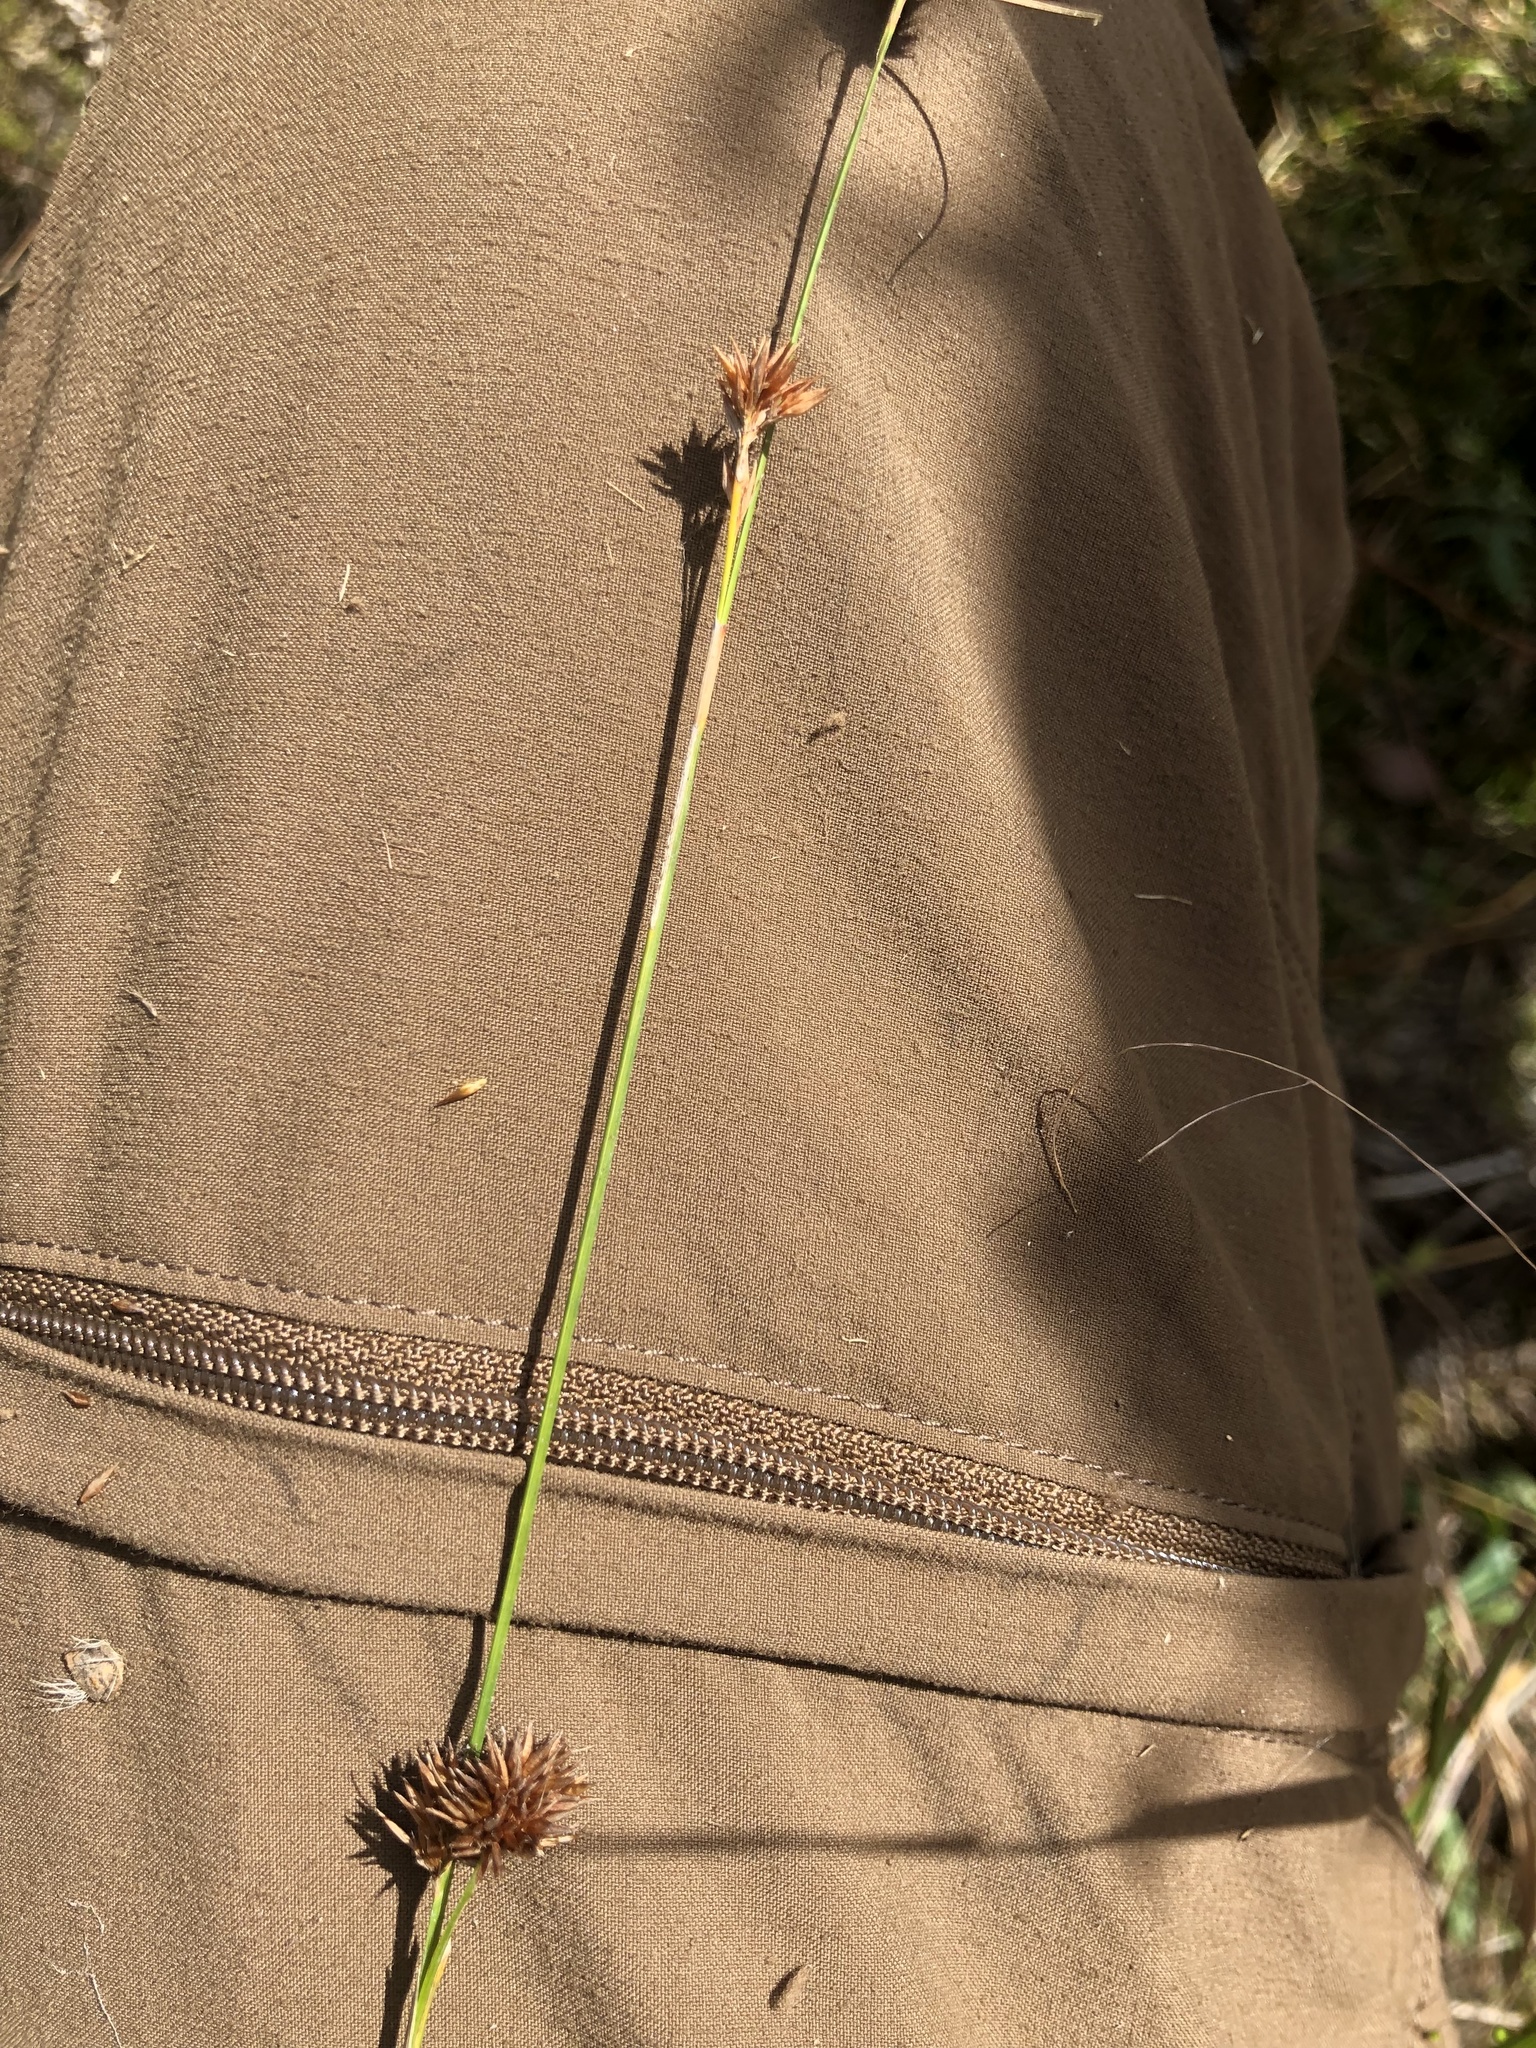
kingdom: Plantae
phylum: Tracheophyta
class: Liliopsida
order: Poales
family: Cyperaceae
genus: Rhynchospora
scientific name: Rhynchospora chalarocephala
